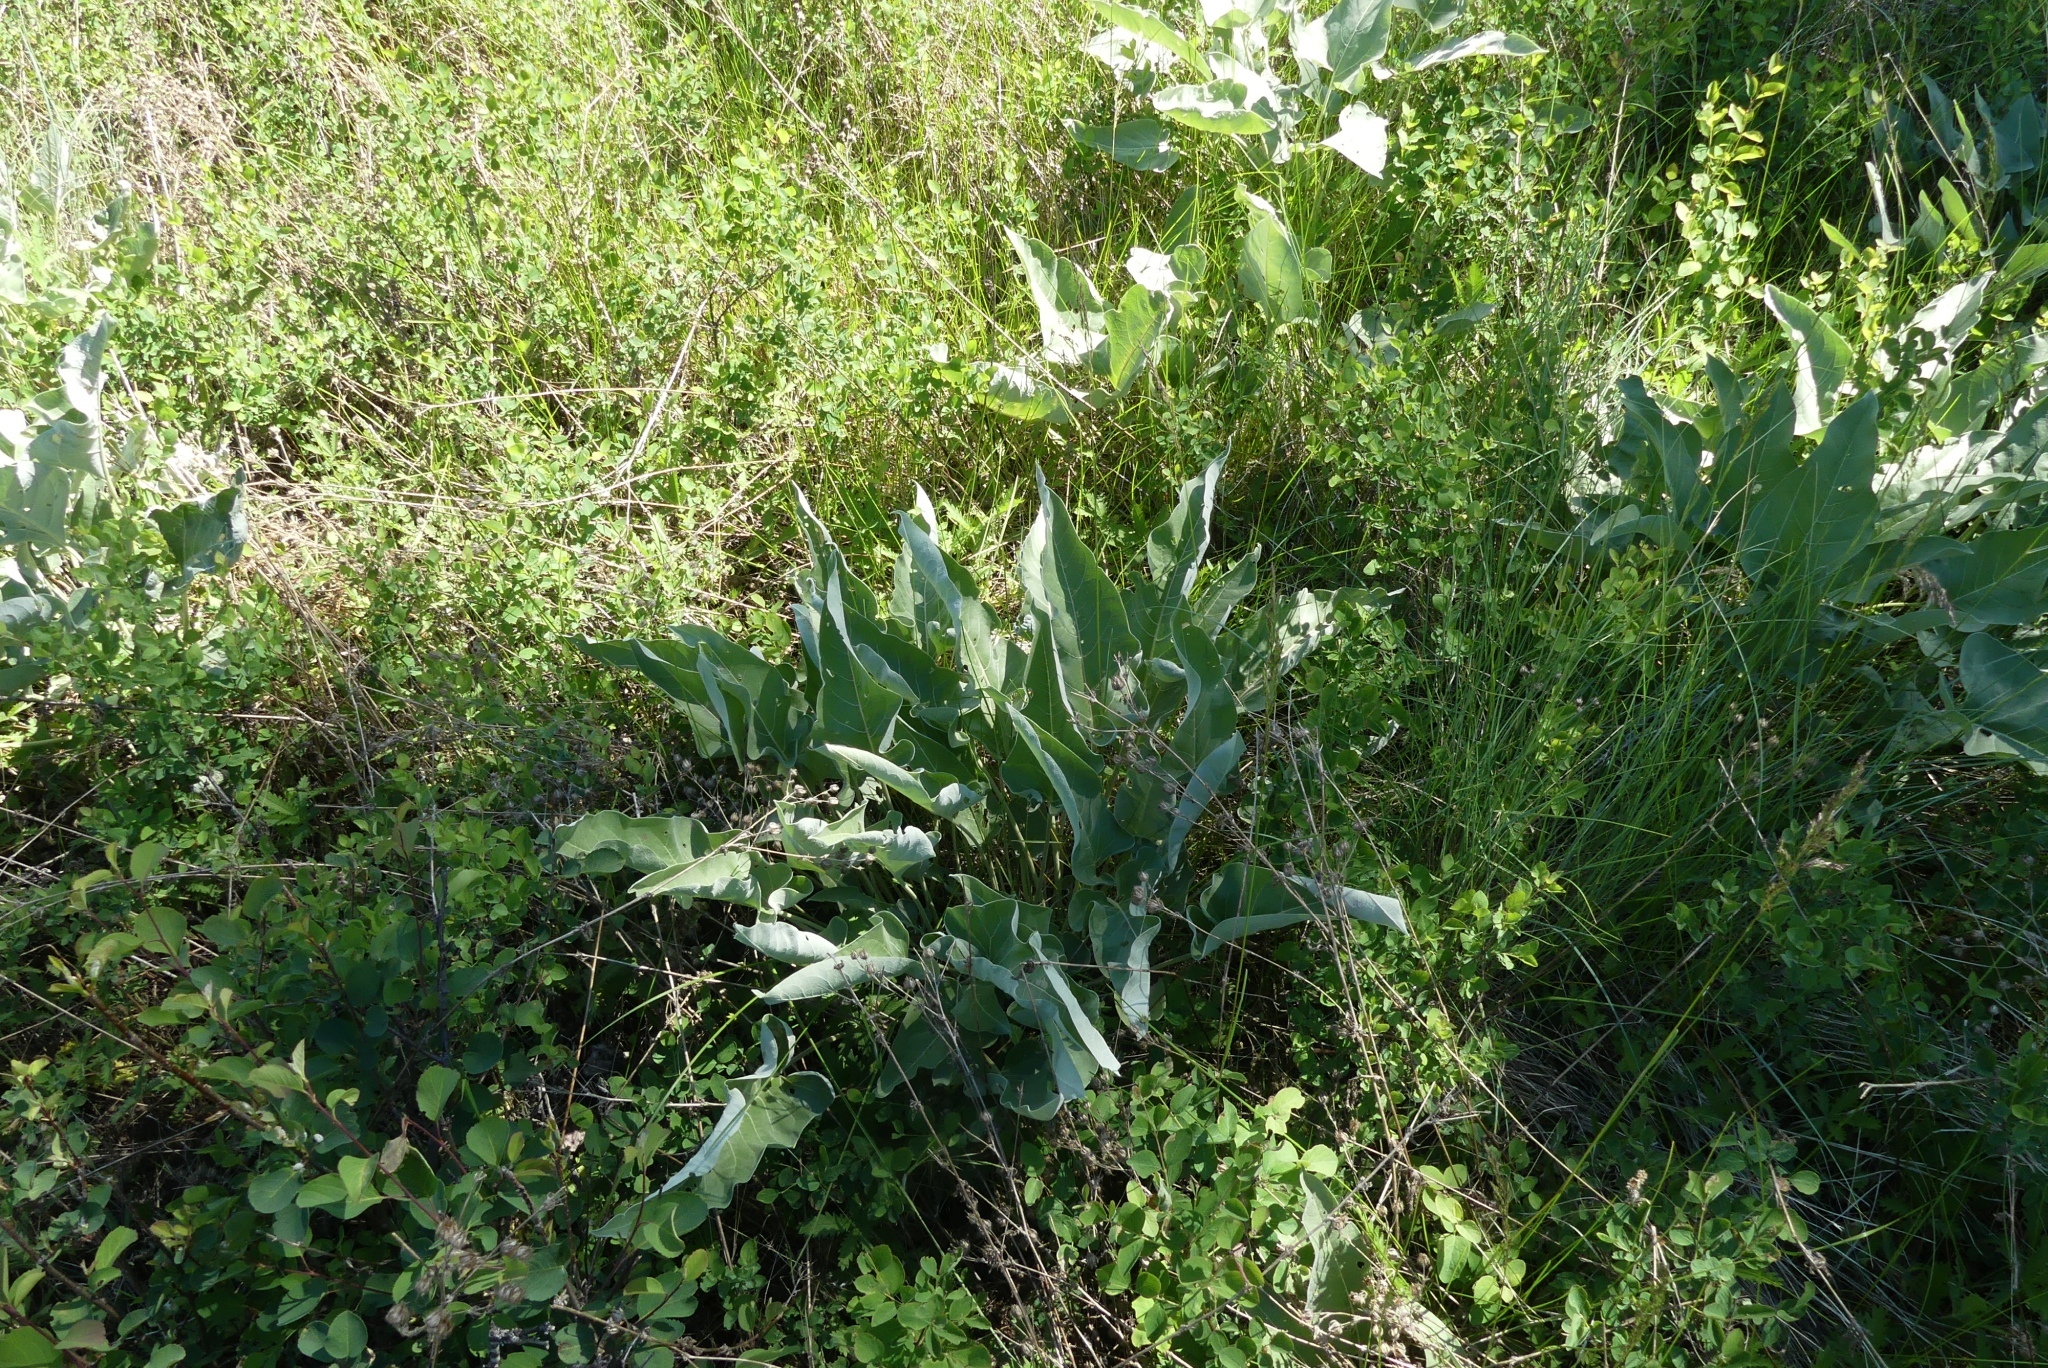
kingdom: Plantae
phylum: Tracheophyta
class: Magnoliopsida
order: Asterales
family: Asteraceae
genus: Wyethia
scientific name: Wyethia sagittata
